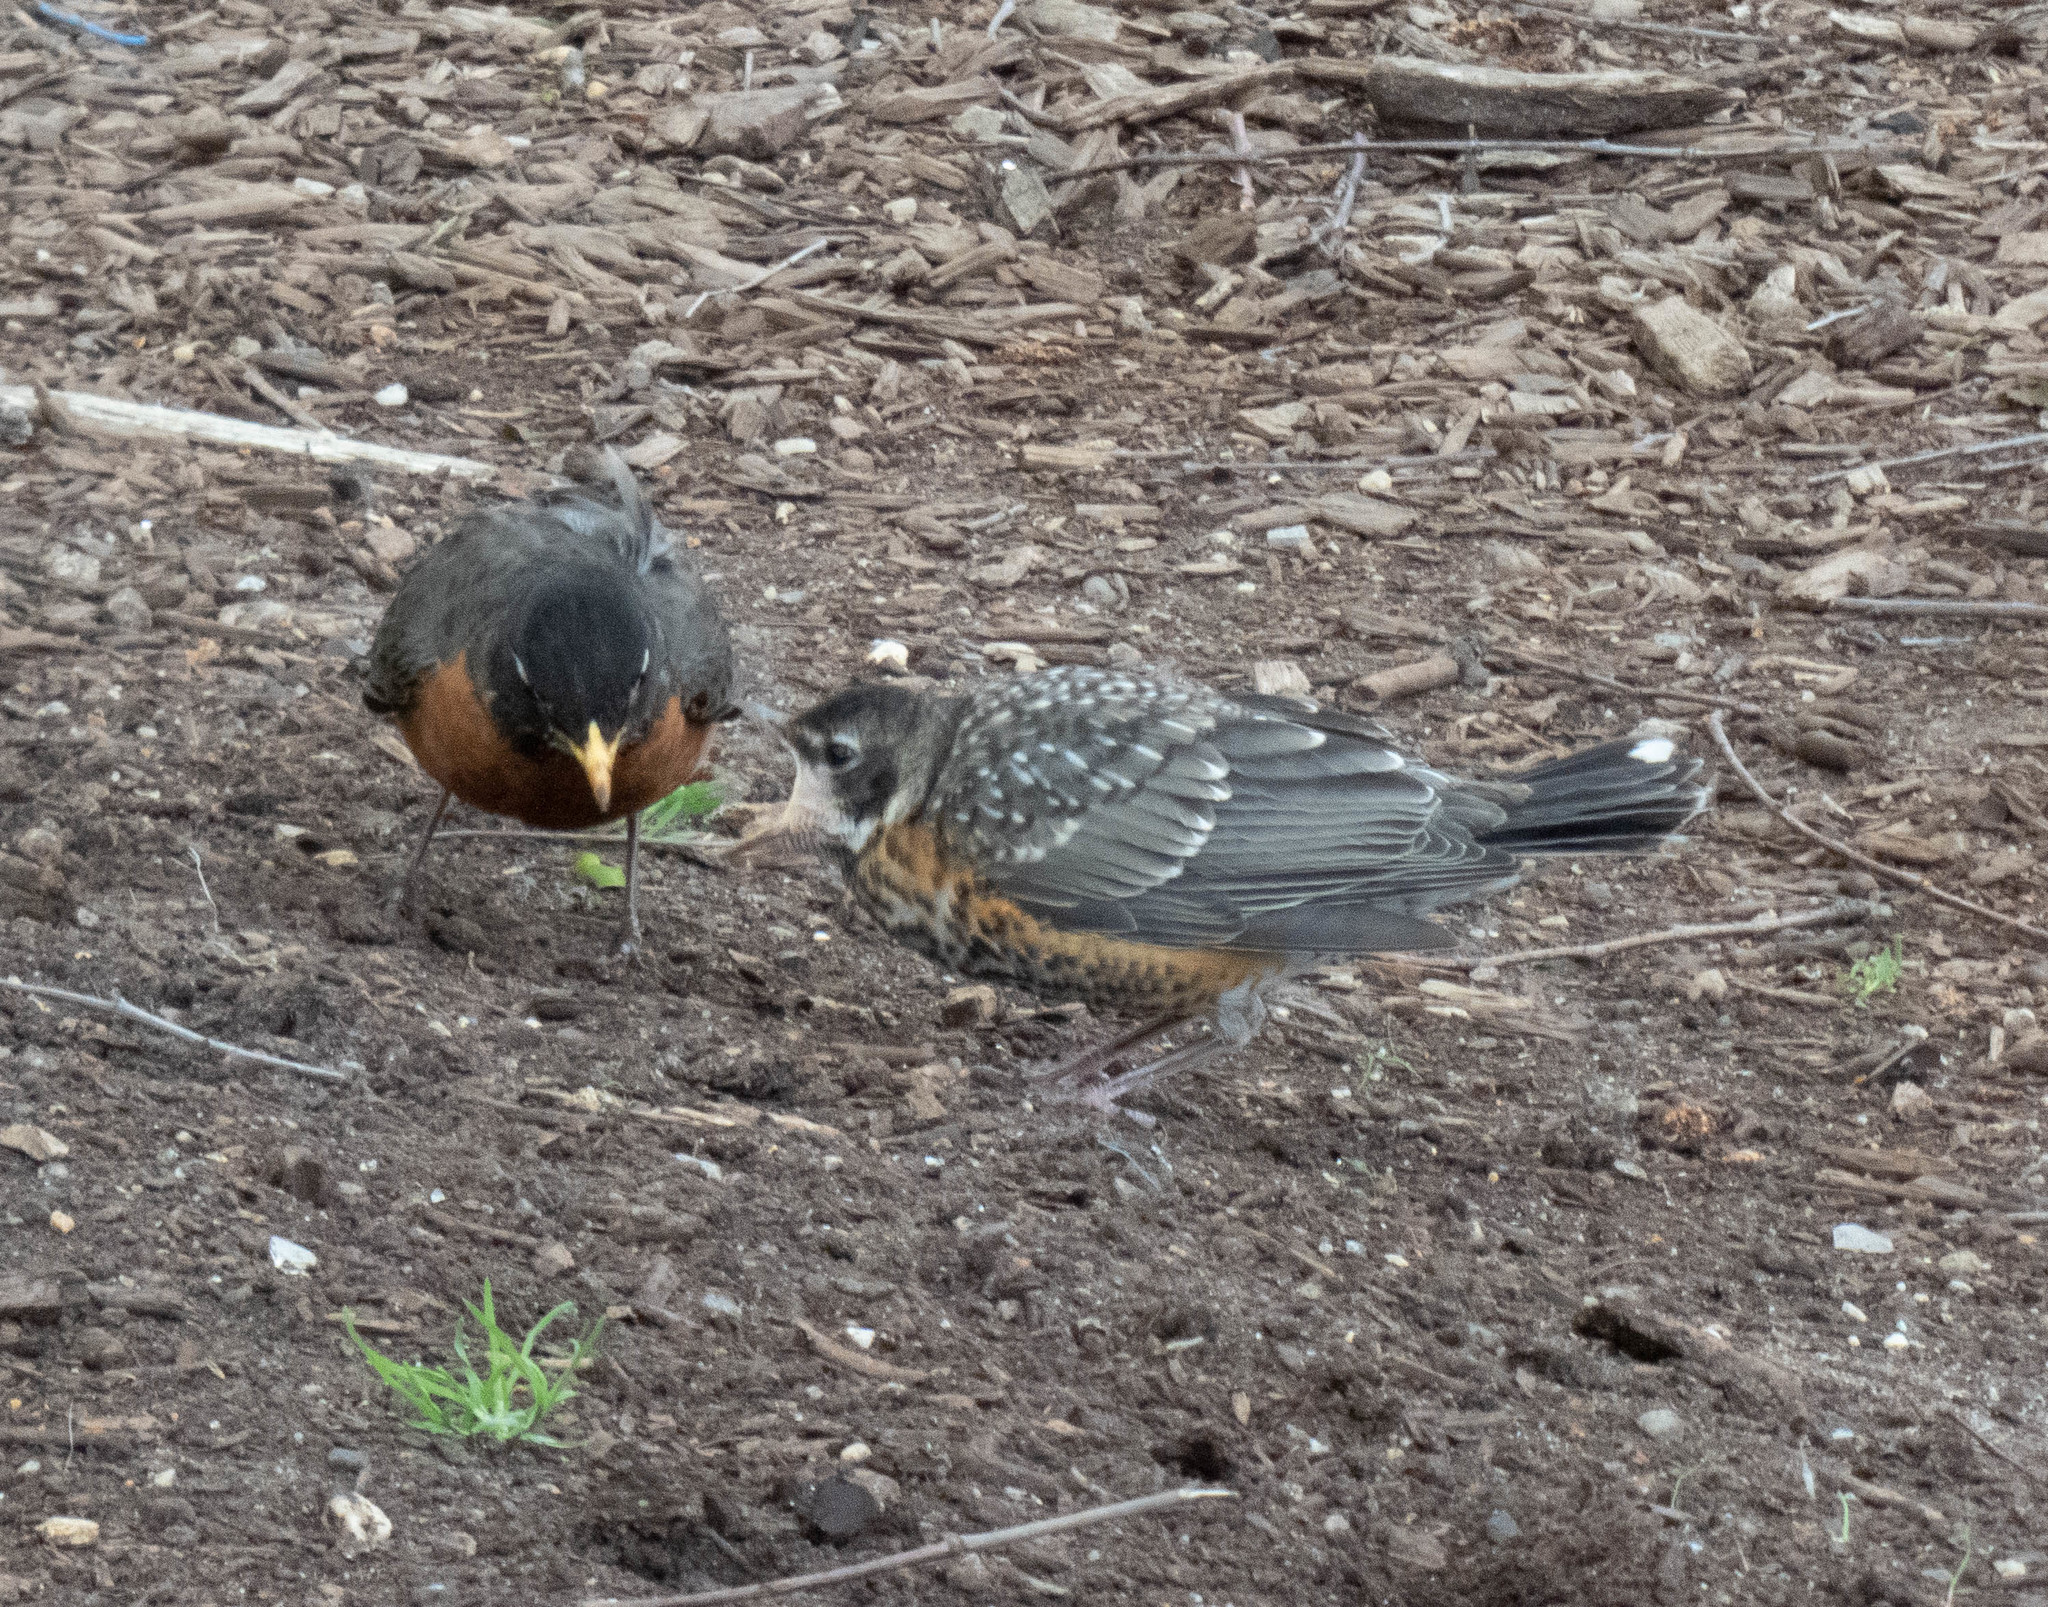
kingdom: Animalia
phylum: Chordata
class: Aves
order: Passeriformes
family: Turdidae
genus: Turdus
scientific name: Turdus migratorius
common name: American robin
